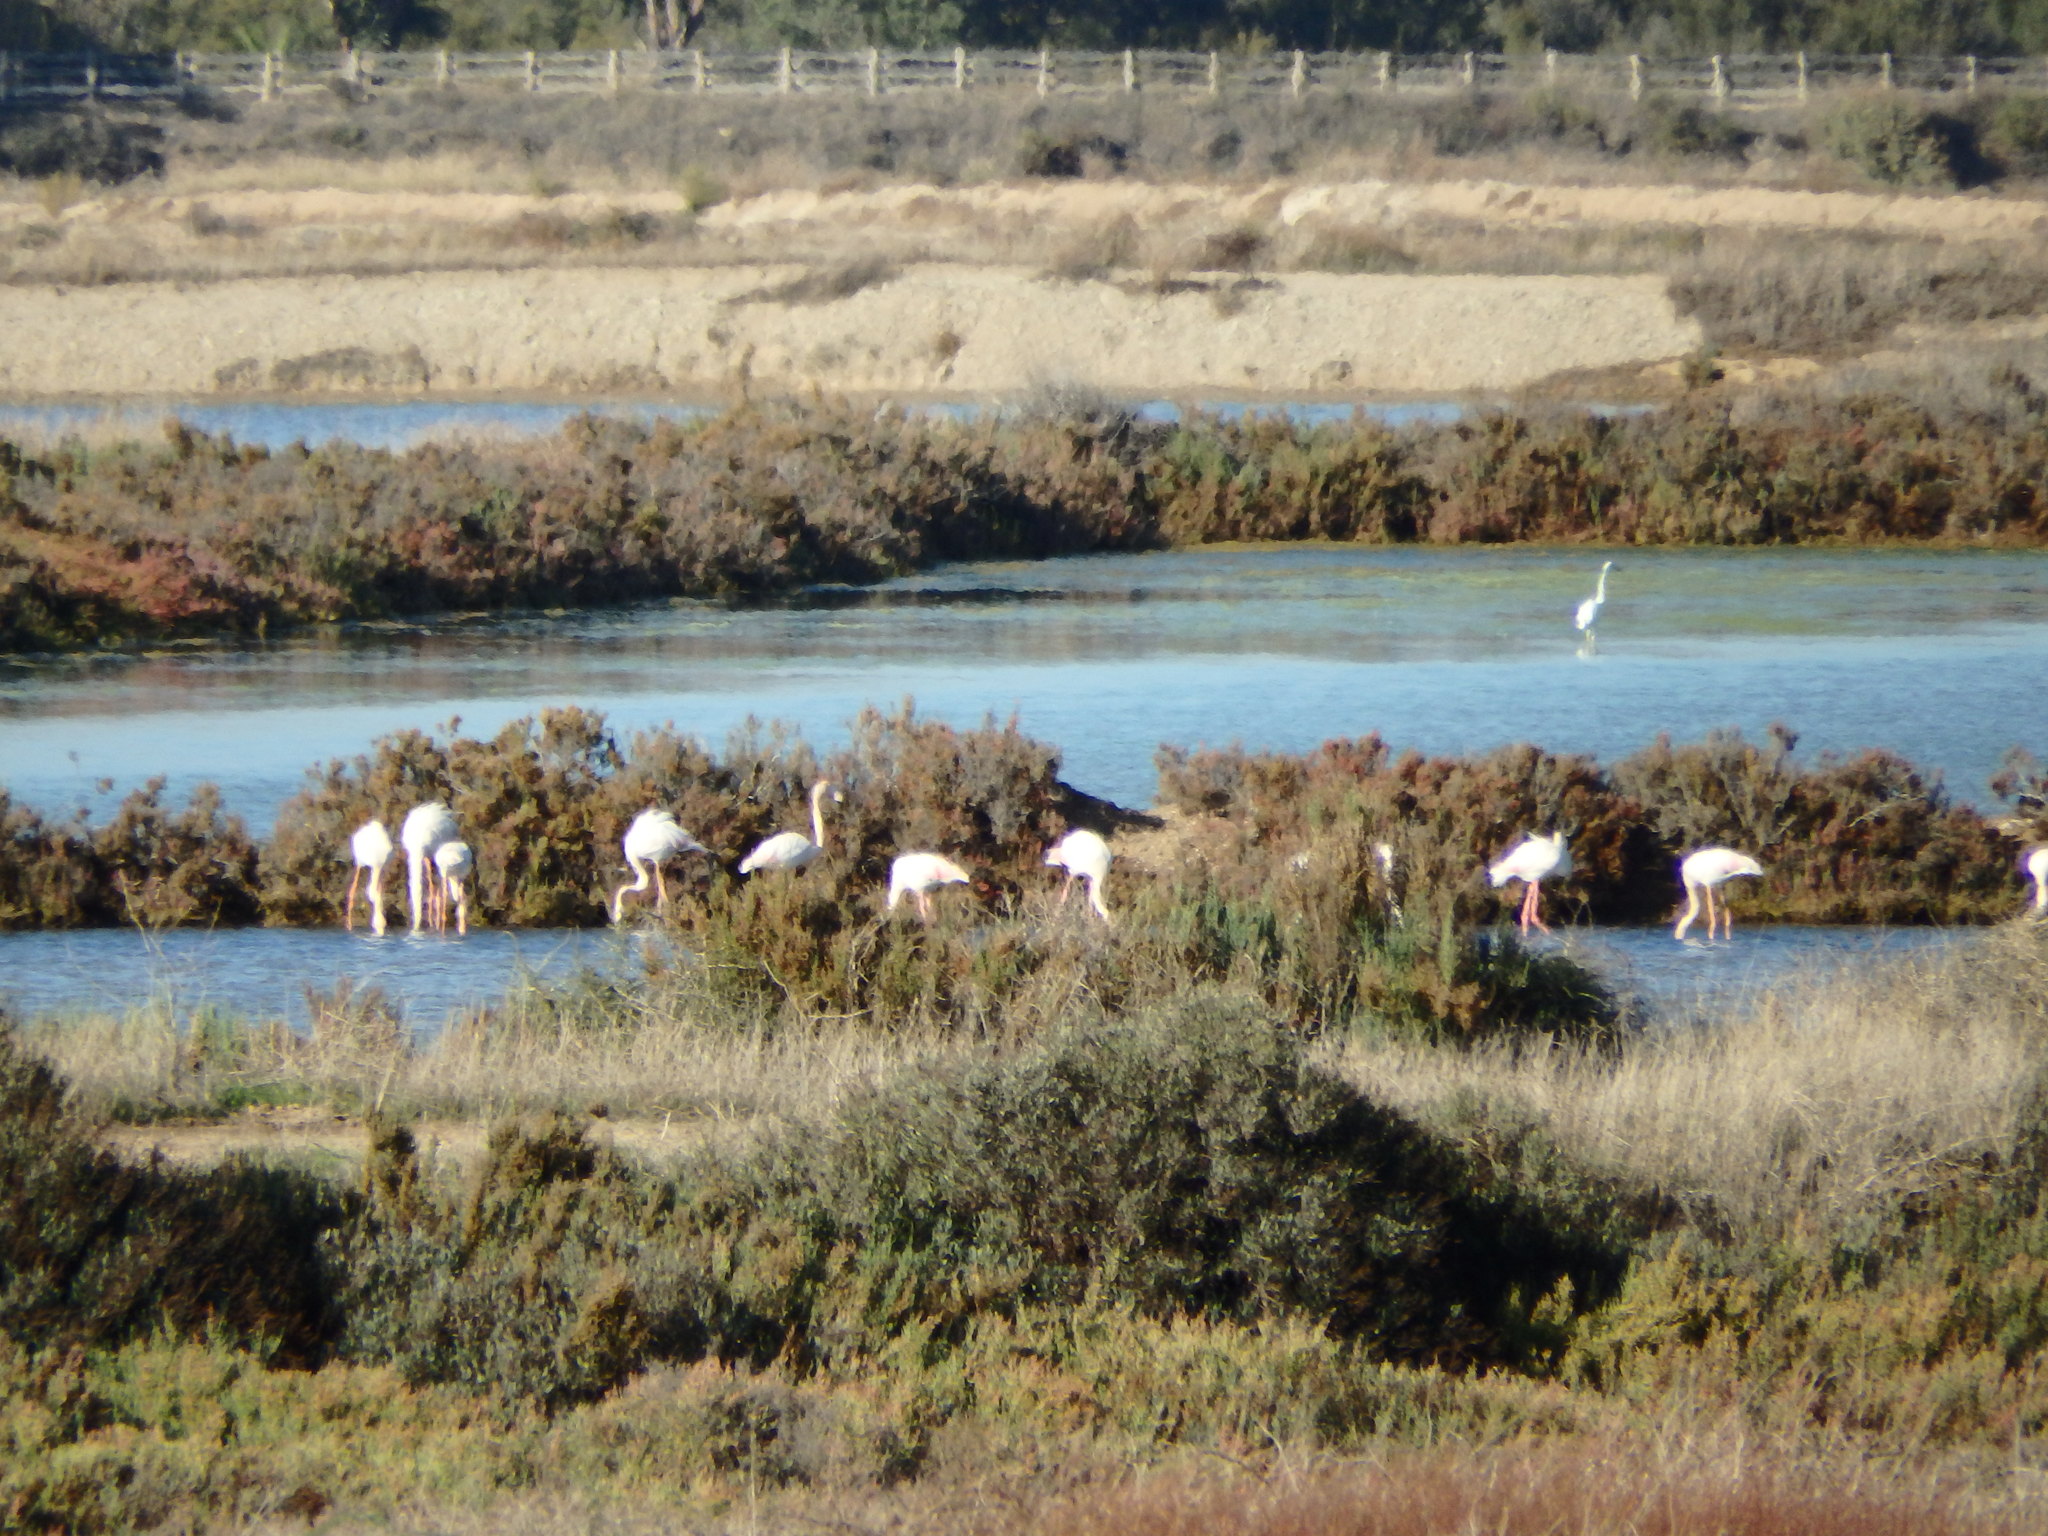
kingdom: Animalia
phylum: Chordata
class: Aves
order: Phoenicopteriformes
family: Phoenicopteridae
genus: Phoenicopterus
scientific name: Phoenicopterus roseus
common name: Greater flamingo
